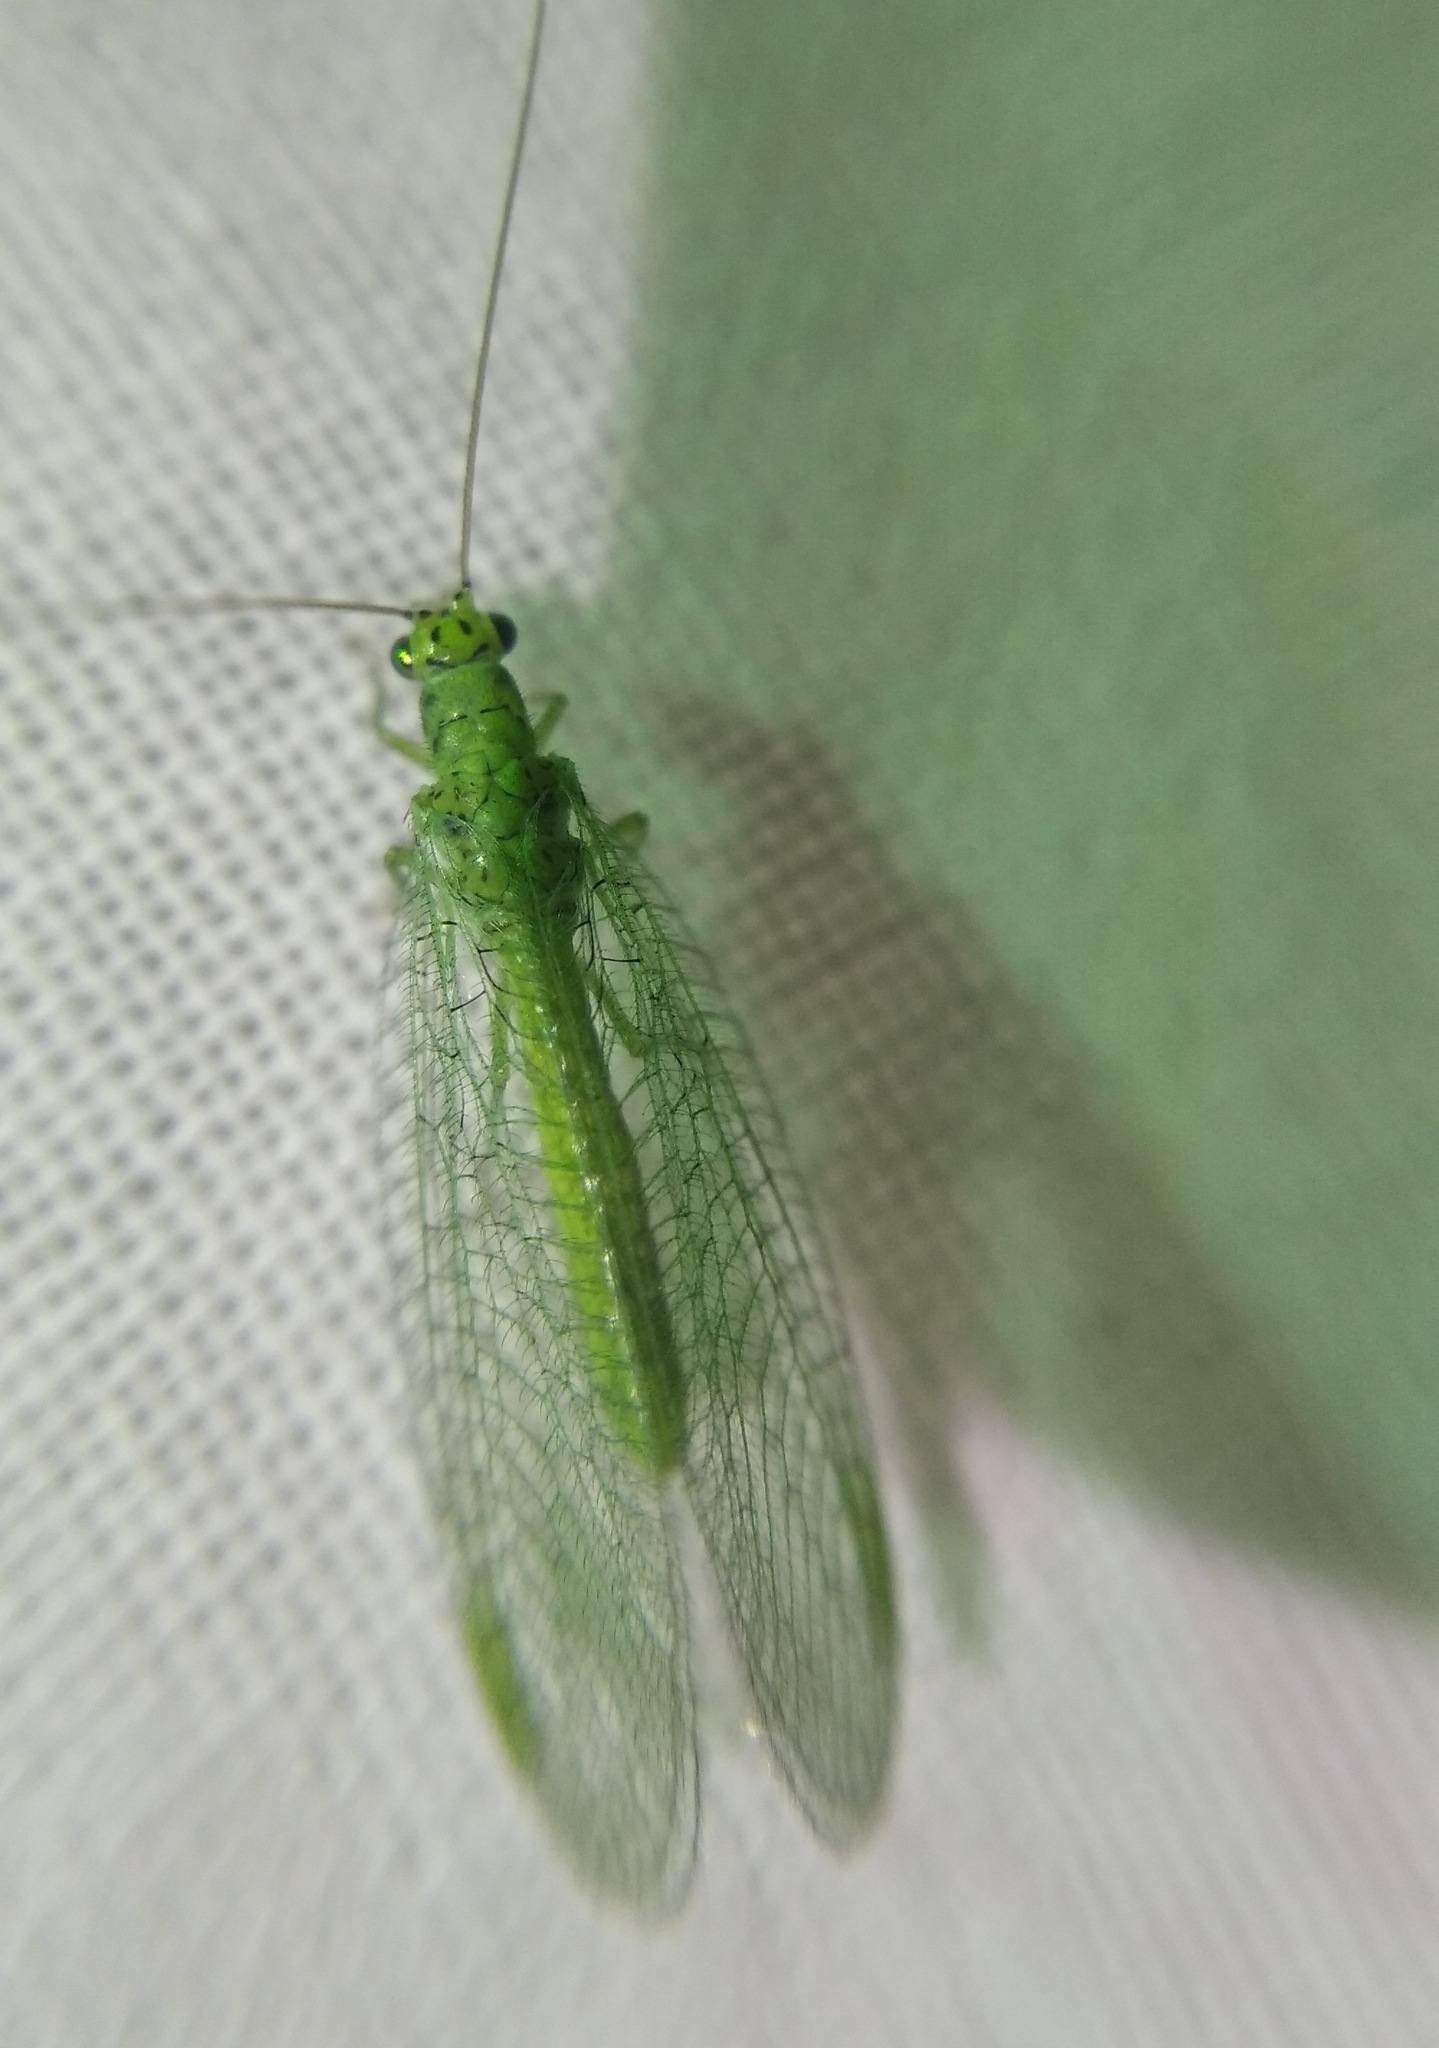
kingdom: Animalia
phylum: Arthropoda
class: Insecta
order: Neuroptera
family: Chrysopidae
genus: Chrysopa
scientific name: Chrysopa abbreviata
